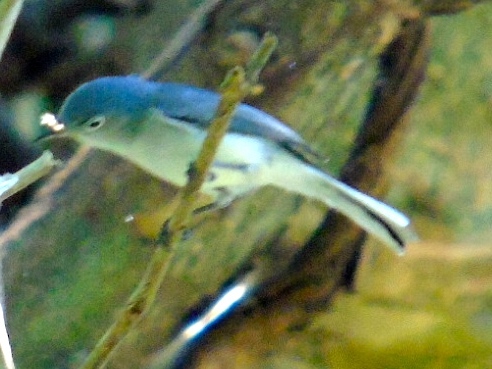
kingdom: Animalia
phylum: Chordata
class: Aves
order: Passeriformes
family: Polioptilidae
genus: Polioptila
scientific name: Polioptila caerulea
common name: Blue-gray gnatcatcher
